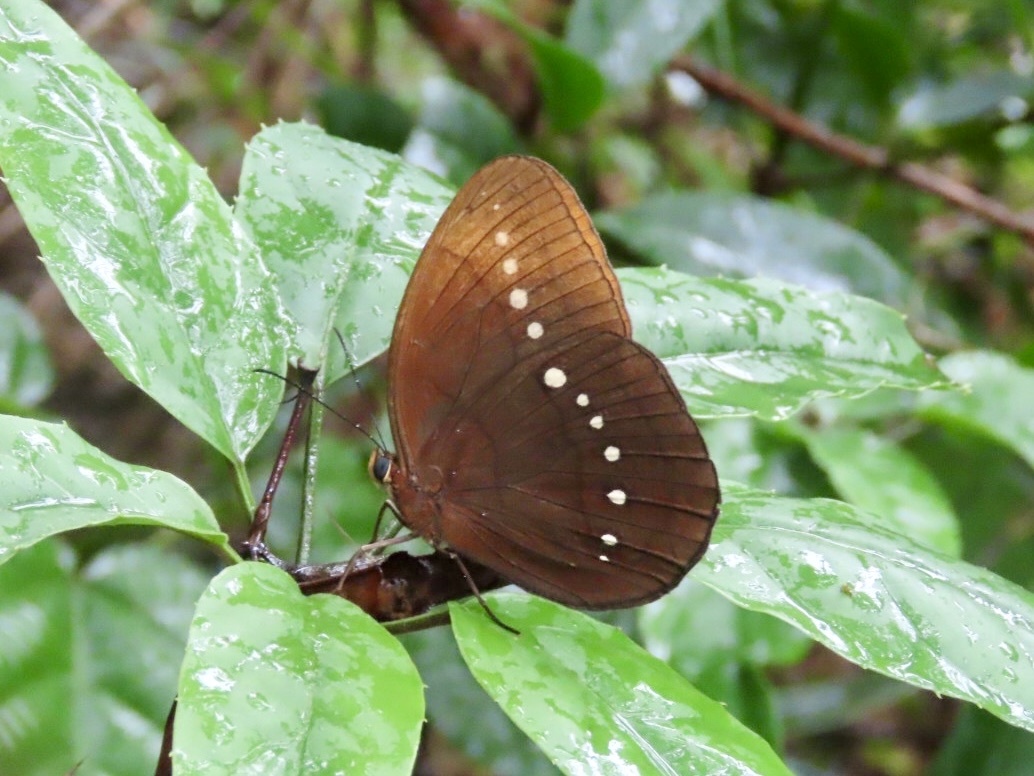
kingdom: Animalia
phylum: Arthropoda
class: Insecta
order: Lepidoptera
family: Nymphalidae
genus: Faunis
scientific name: Faunis eumeus
